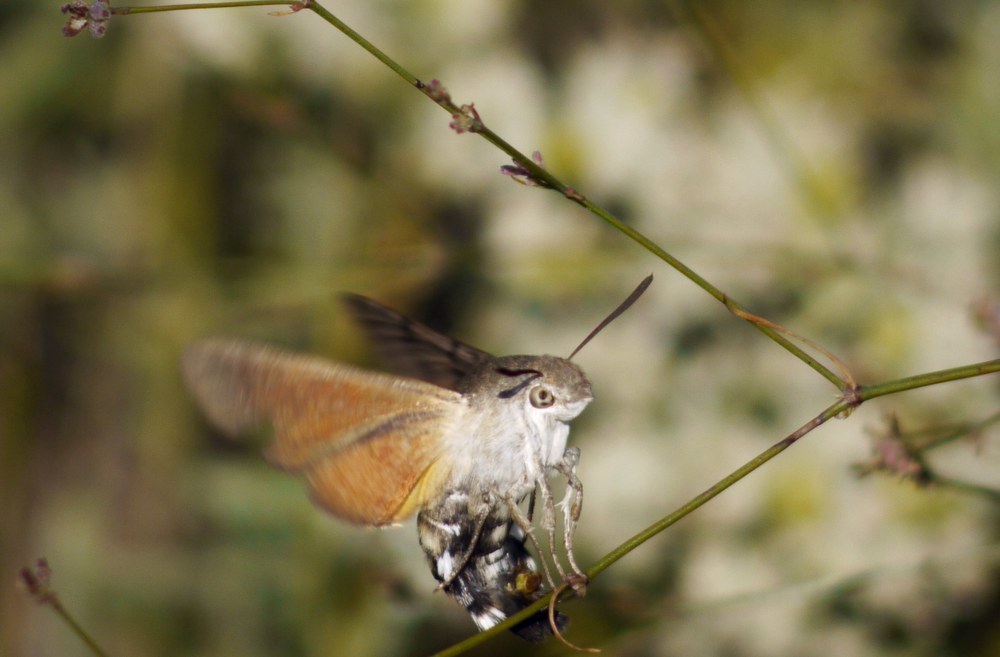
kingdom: Animalia
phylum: Arthropoda
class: Insecta
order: Lepidoptera
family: Sphingidae
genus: Macroglossum
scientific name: Macroglossum stellatarum
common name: Humming-bird hawk-moth
